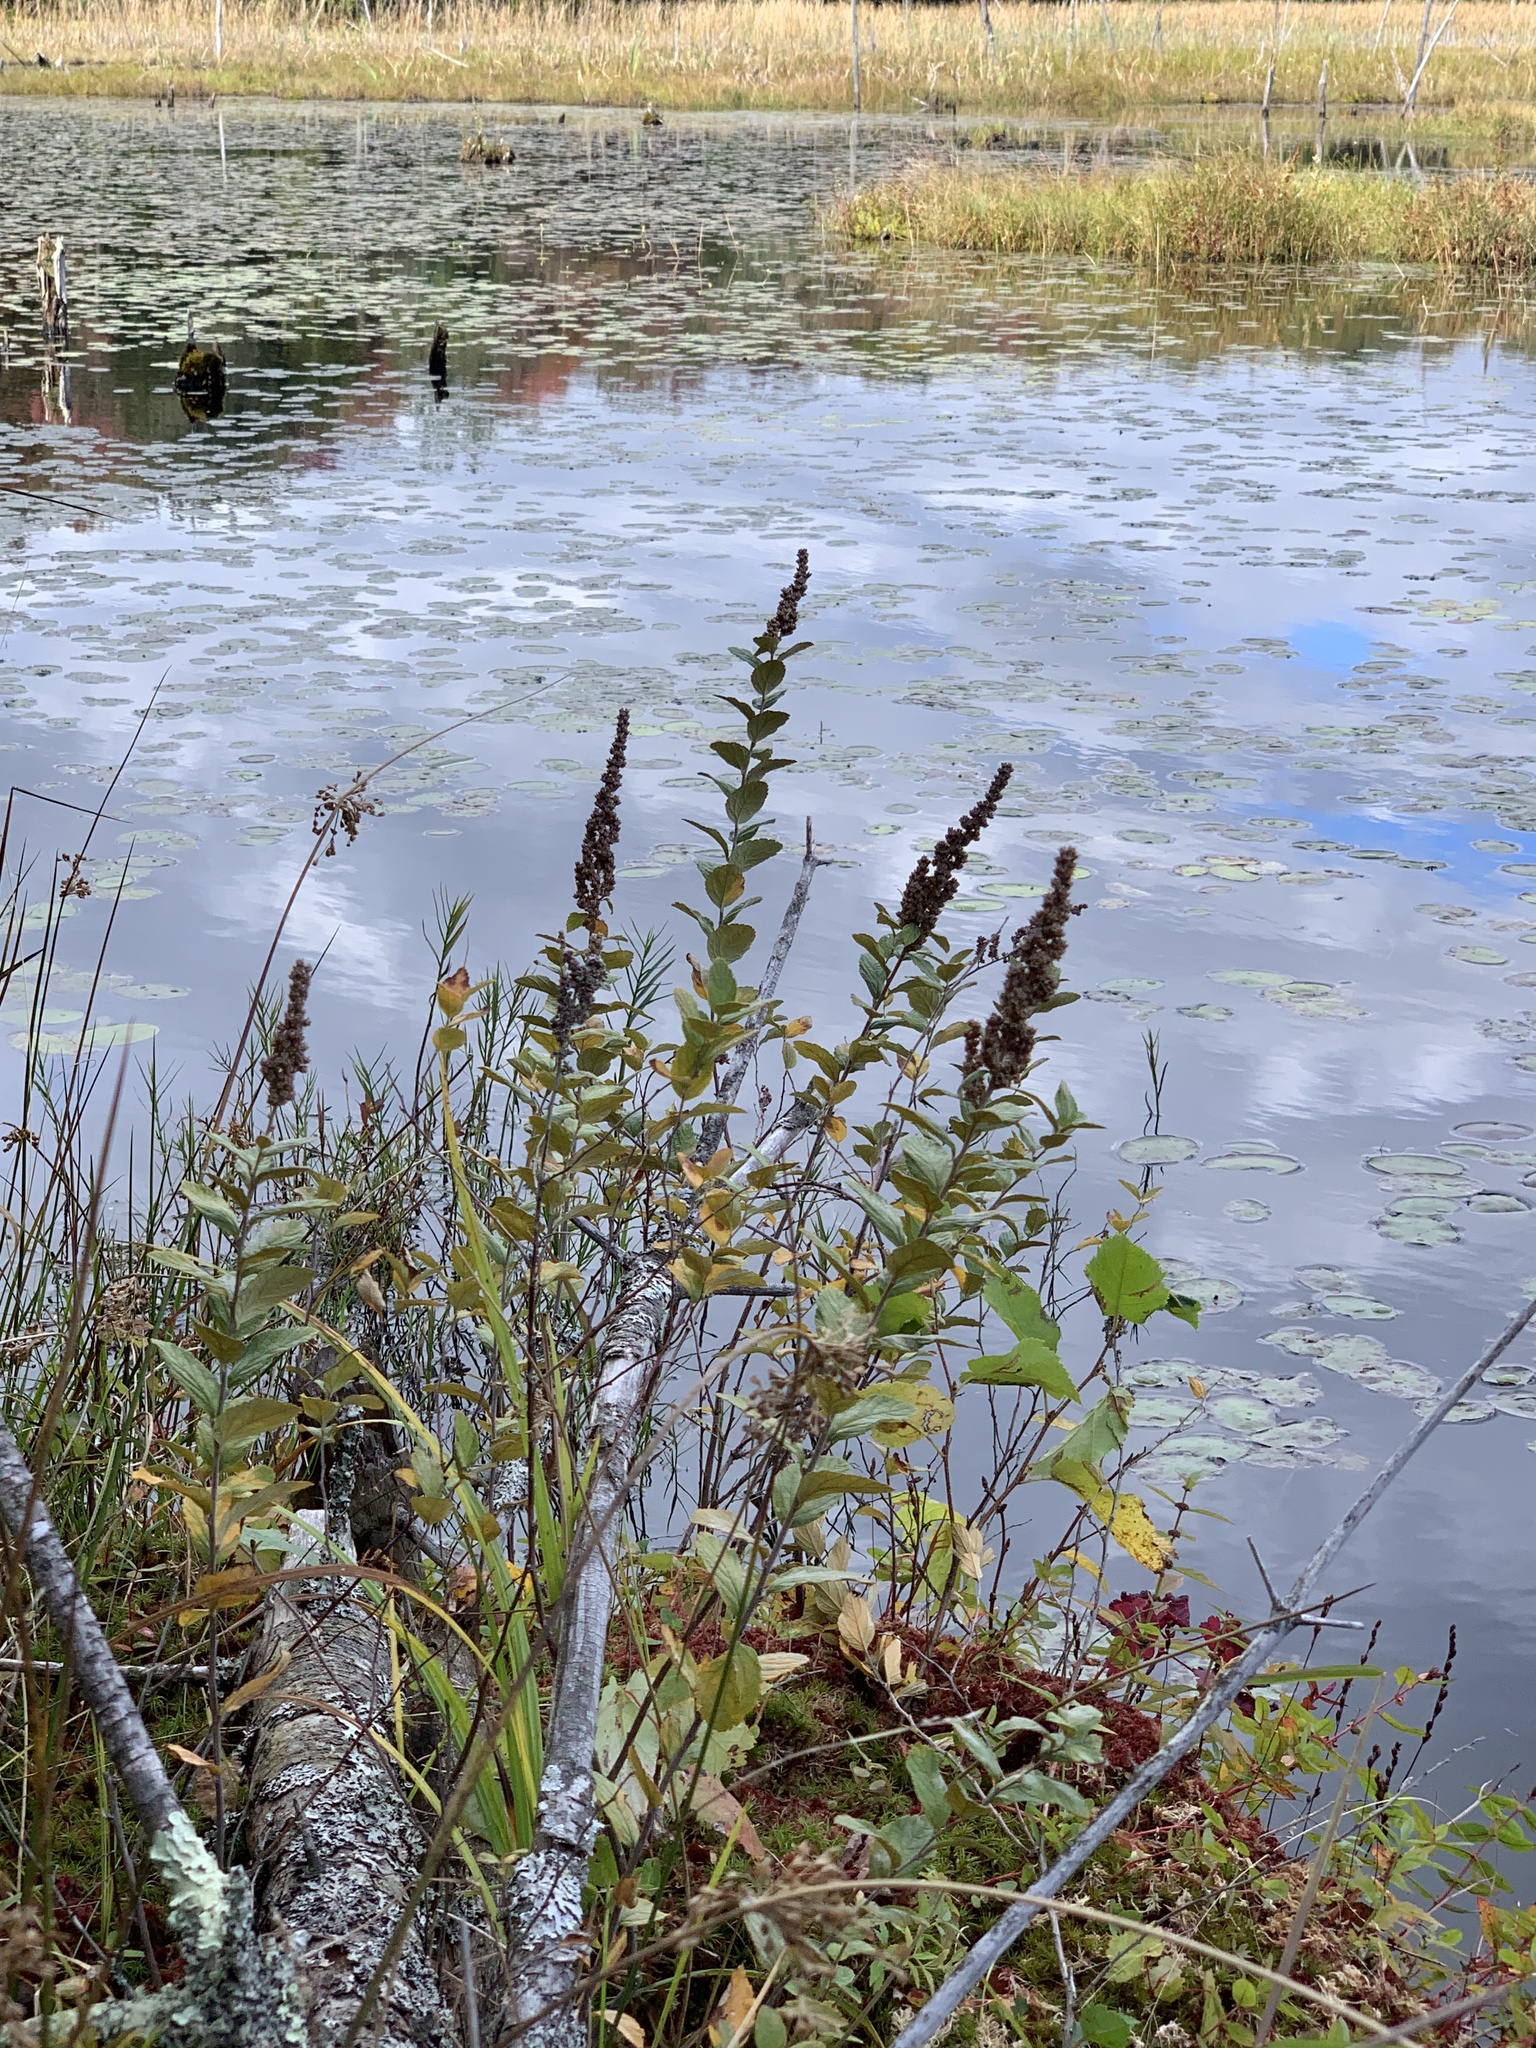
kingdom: Plantae
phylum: Tracheophyta
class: Magnoliopsida
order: Rosales
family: Rosaceae
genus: Spiraea
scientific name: Spiraea tomentosa
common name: Hardhack
